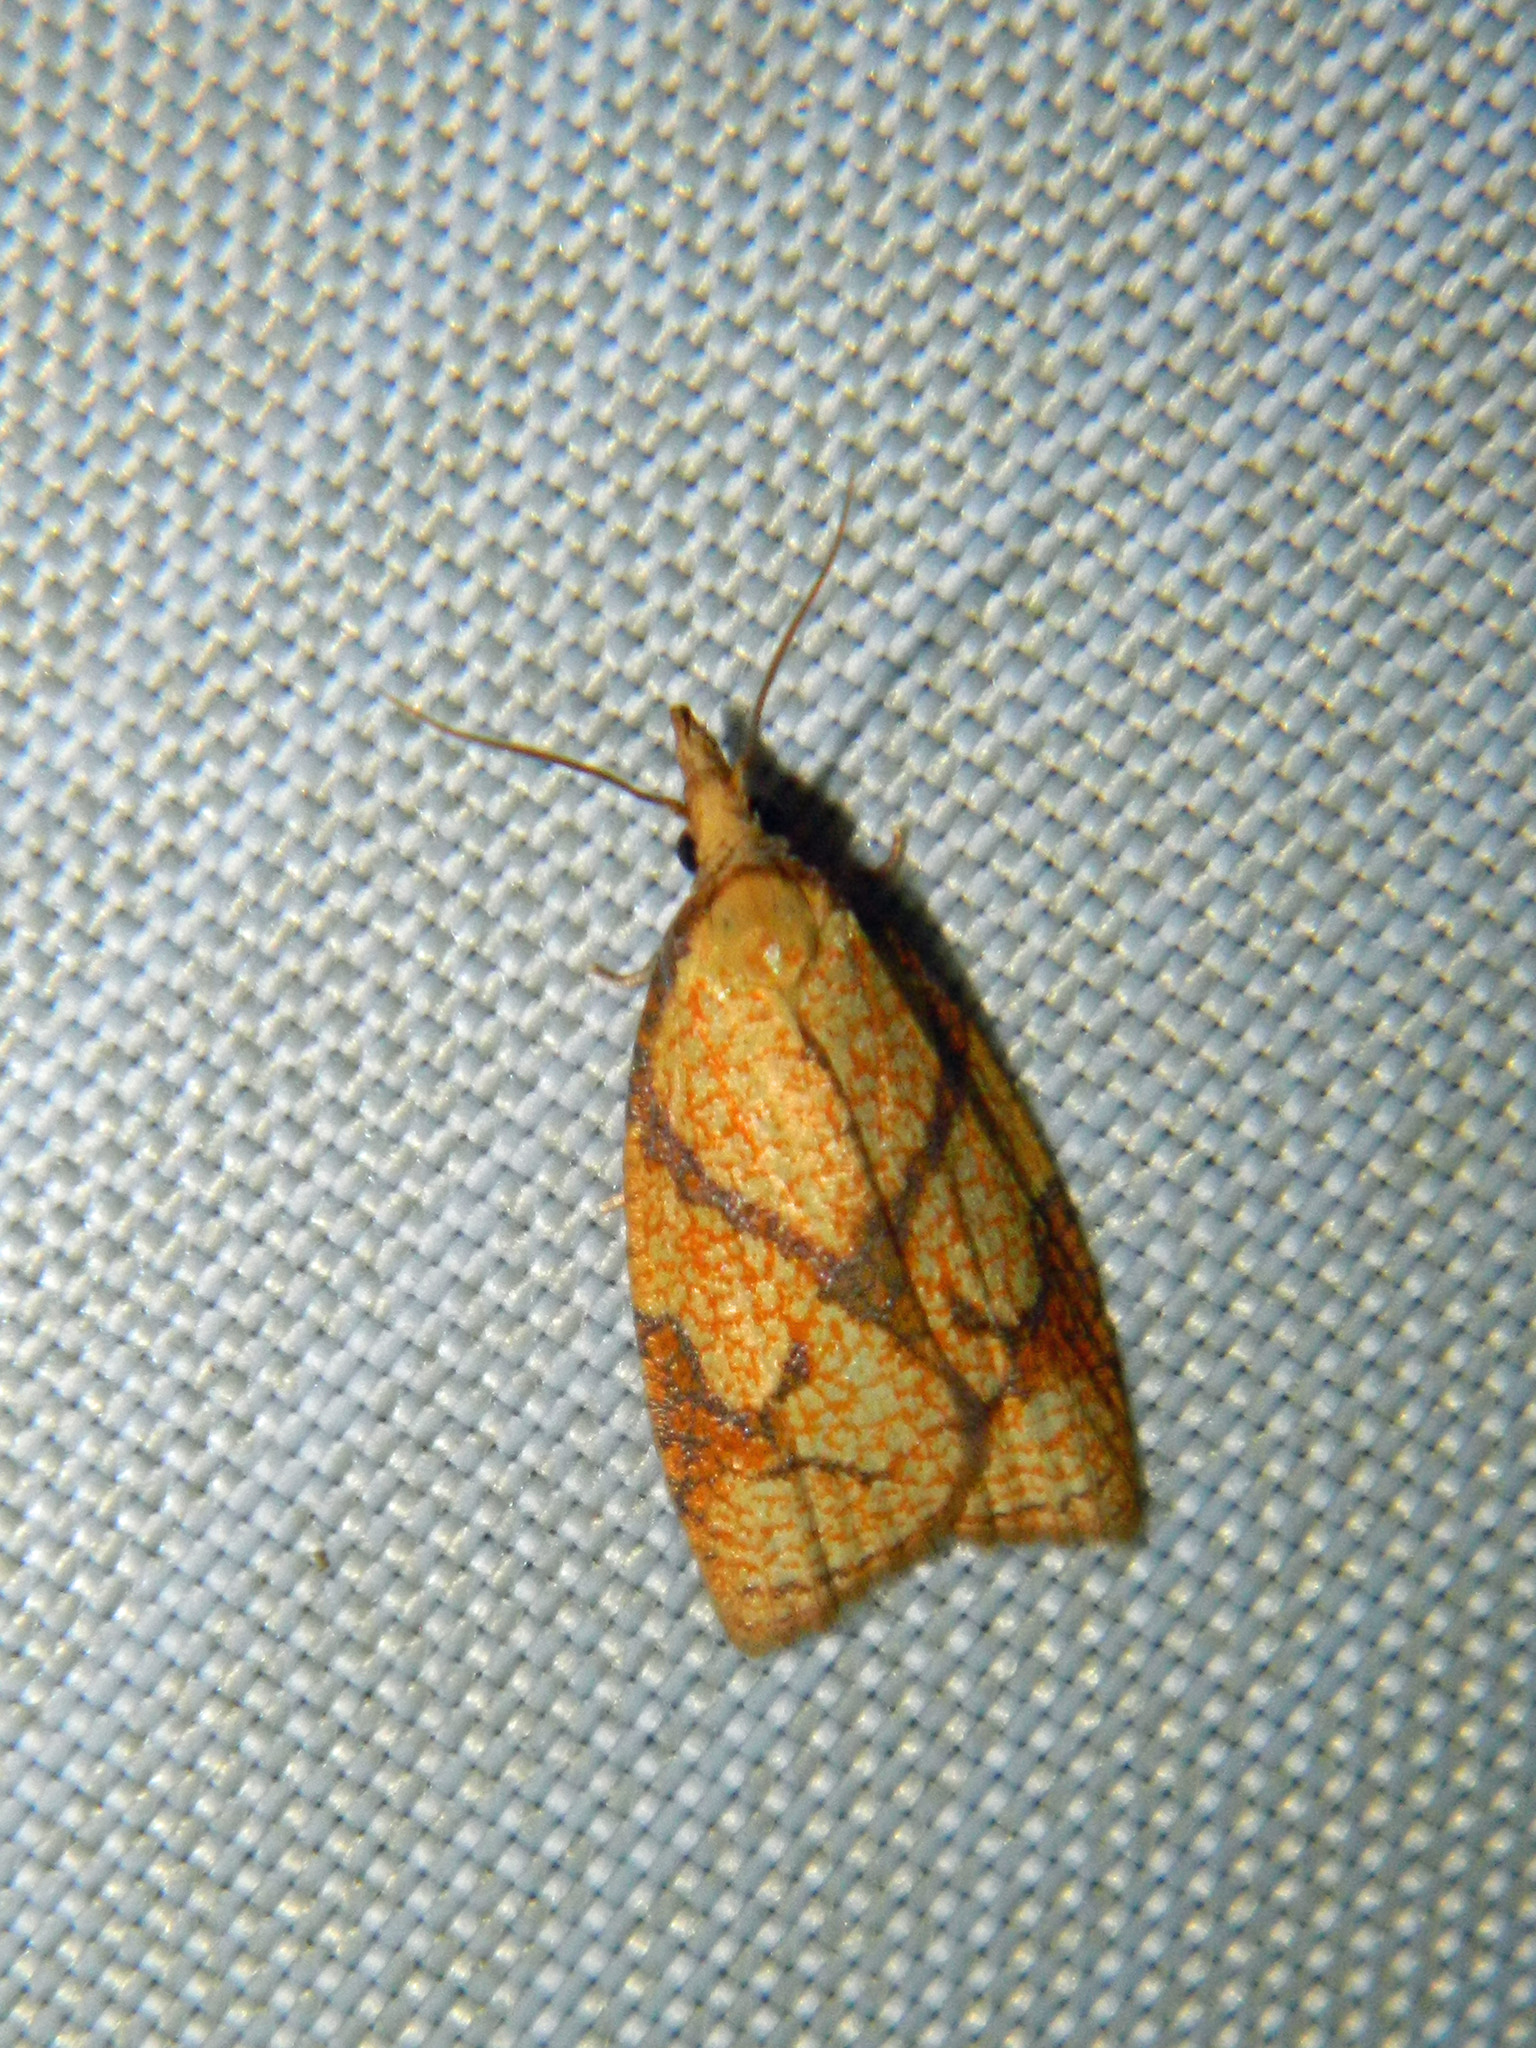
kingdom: Animalia
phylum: Arthropoda
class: Insecta
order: Lepidoptera
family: Tortricidae
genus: Cenopis
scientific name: Cenopis reticulatana
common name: Reticulated fruitworm moth
